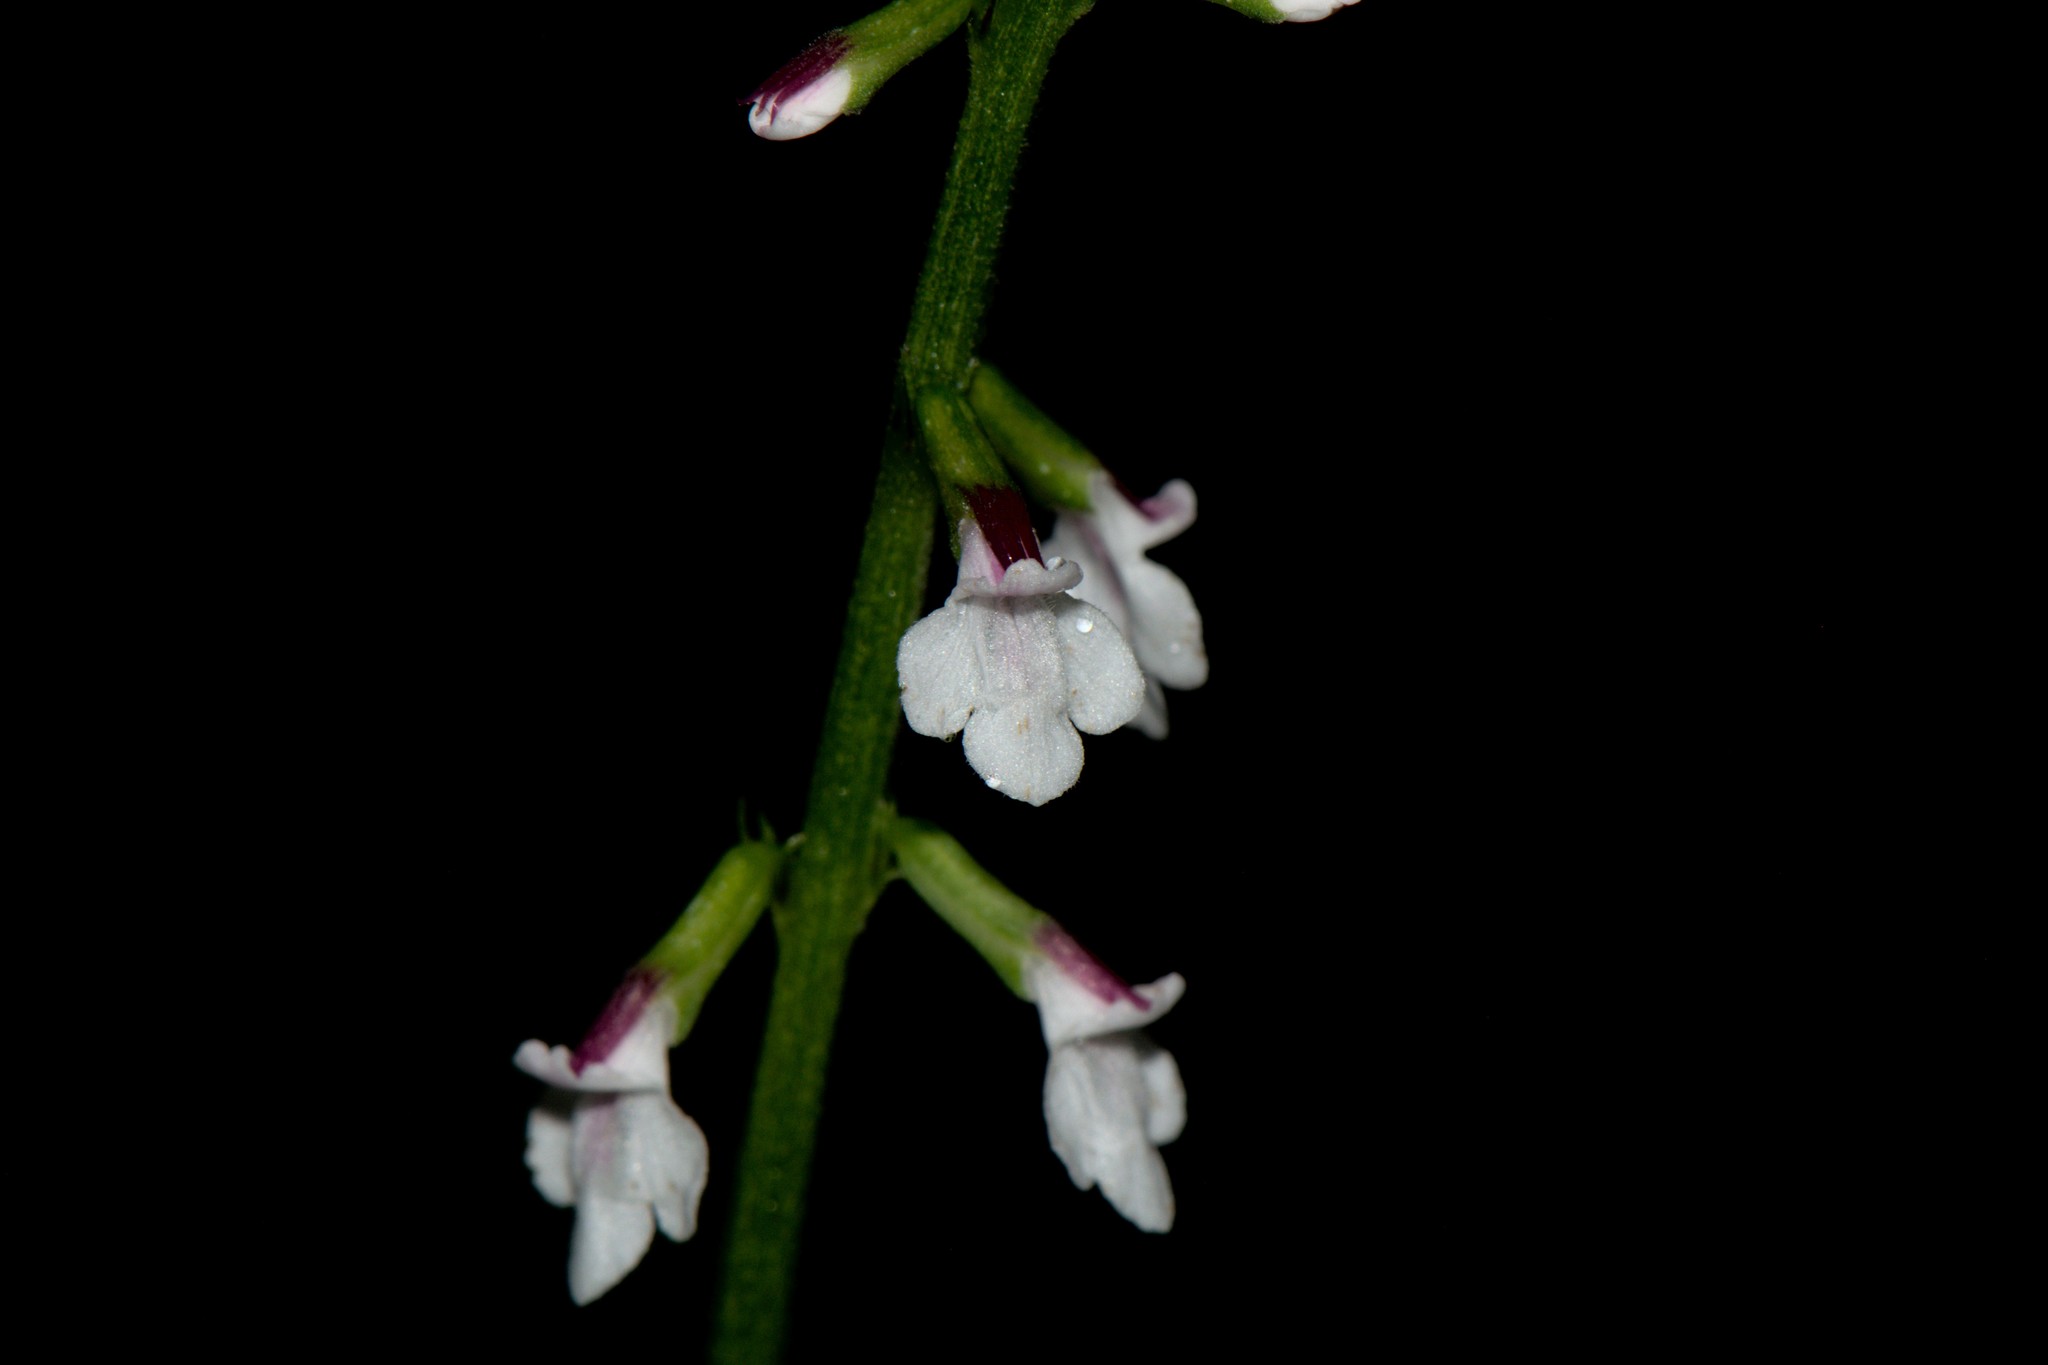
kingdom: Plantae
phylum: Tracheophyta
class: Magnoliopsida
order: Lamiales
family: Phrymaceae
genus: Phryma
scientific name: Phryma leptostachya
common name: American lopseed
